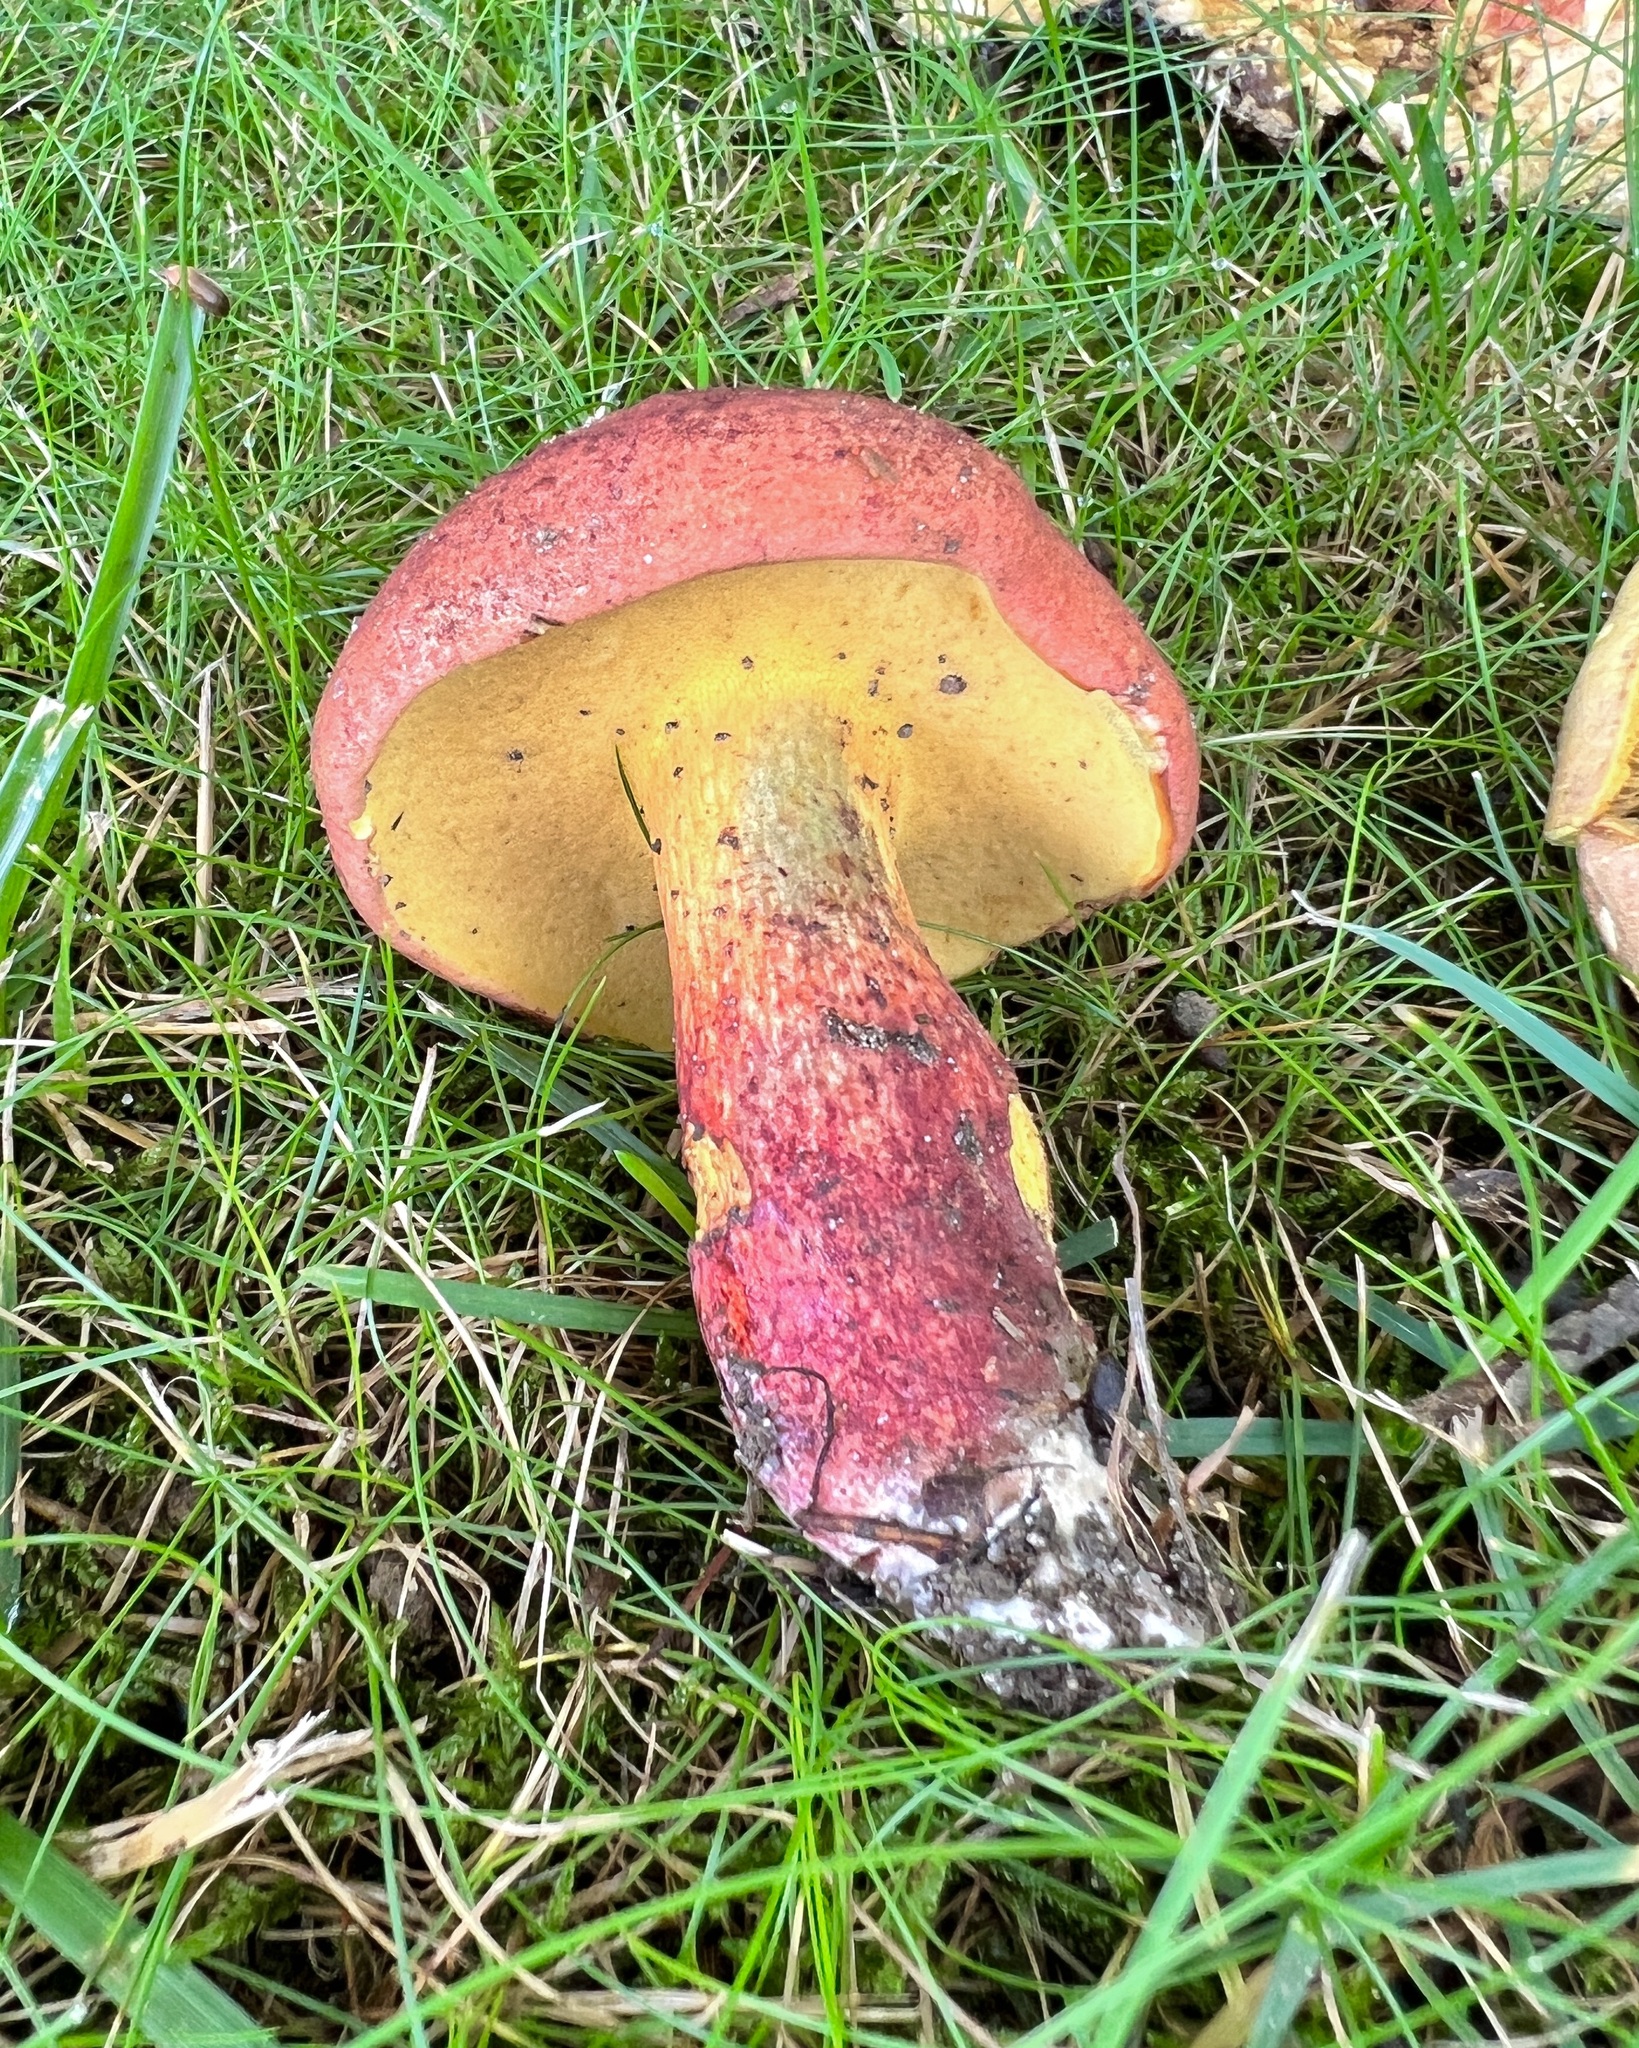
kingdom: Fungi
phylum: Basidiomycota
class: Agaricomycetes
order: Boletales
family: Boletaceae
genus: Baorangia
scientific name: Baorangia bicolor
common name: Two-colored bolete
